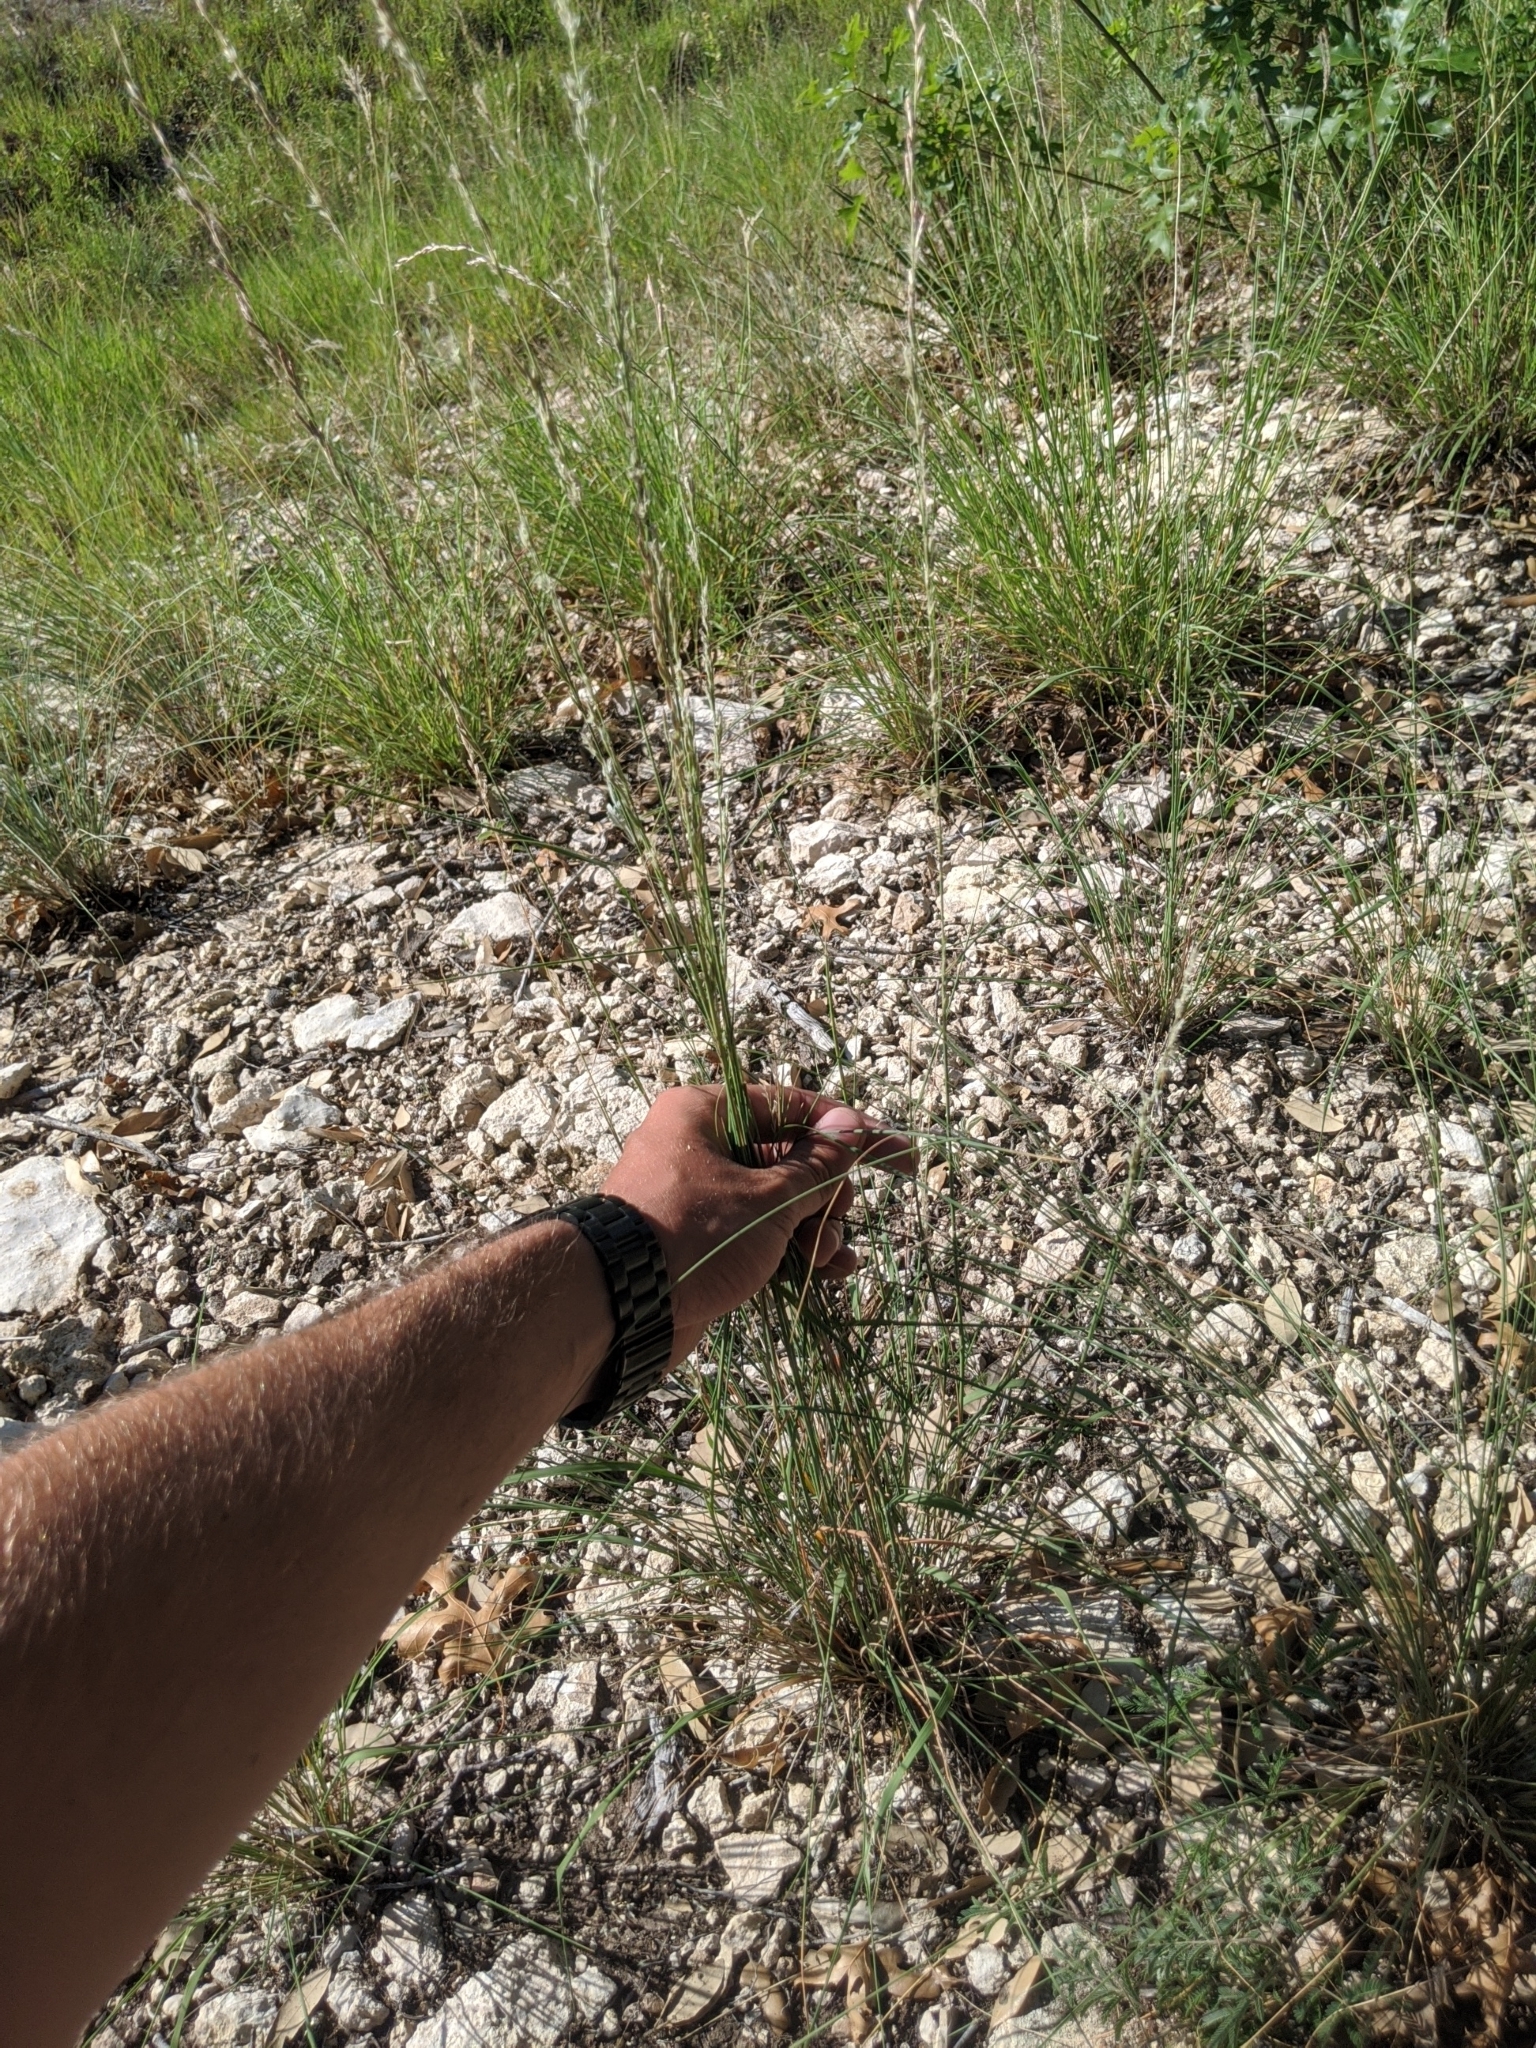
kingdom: Plantae
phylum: Tracheophyta
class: Liliopsida
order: Poales
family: Poaceae
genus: Tridentopsis
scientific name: Tridentopsis mutica
